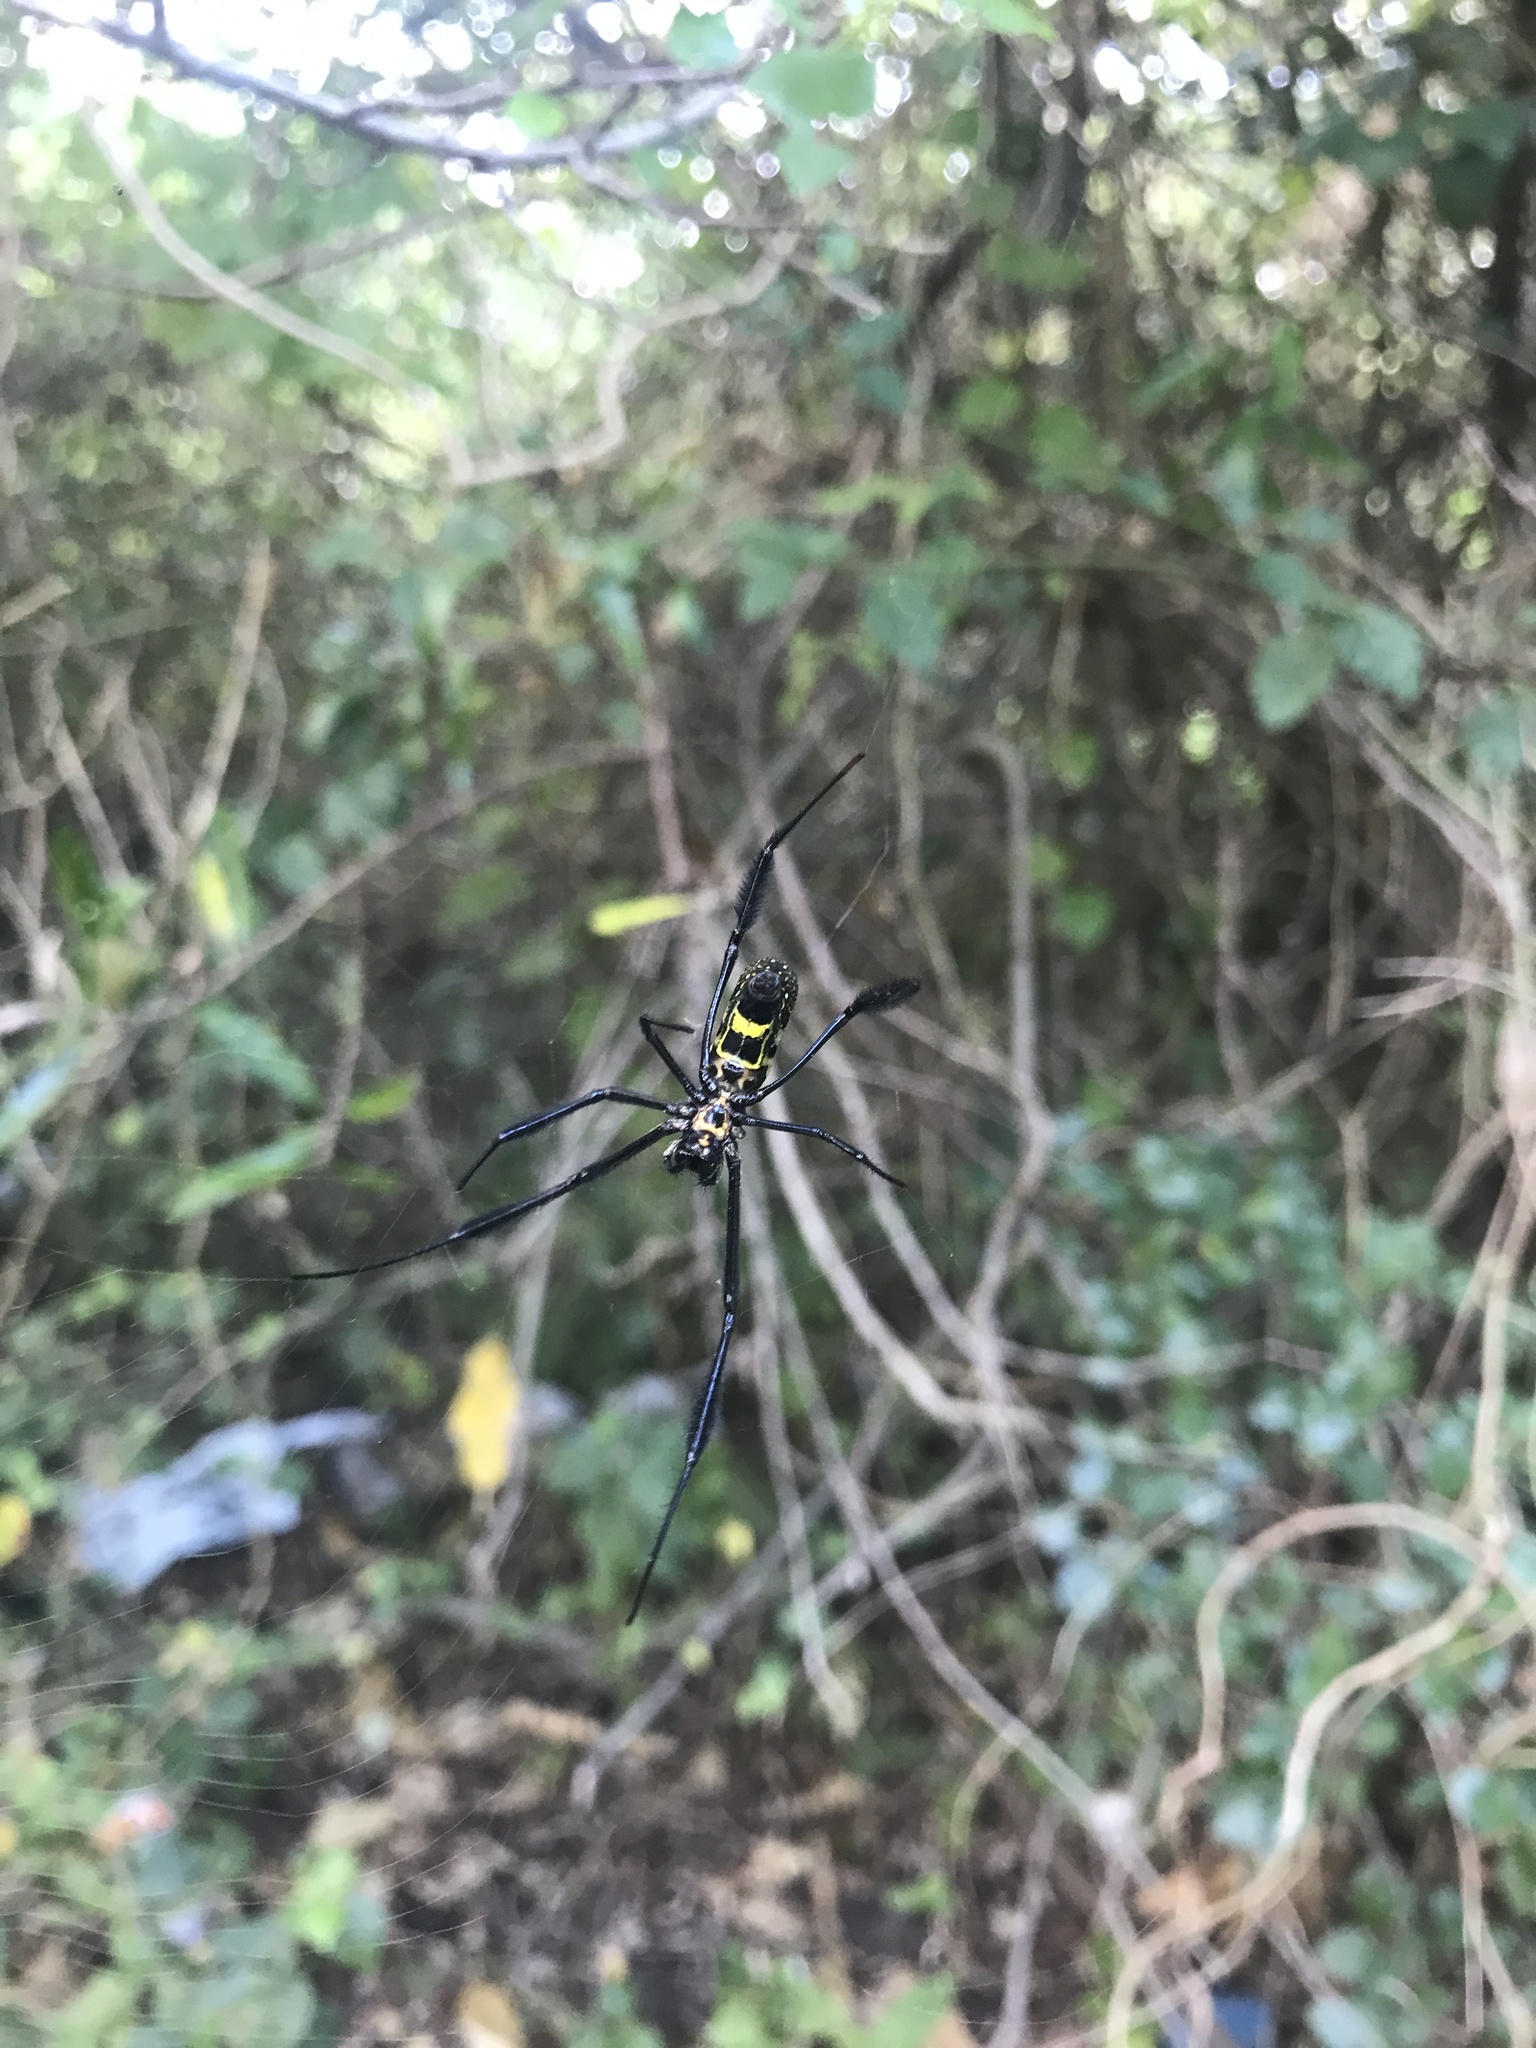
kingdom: Animalia
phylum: Arthropoda
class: Arachnida
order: Araneae
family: Araneidae
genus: Trichonephila
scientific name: Trichonephila fenestrata
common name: Hairy golden orb weaver
